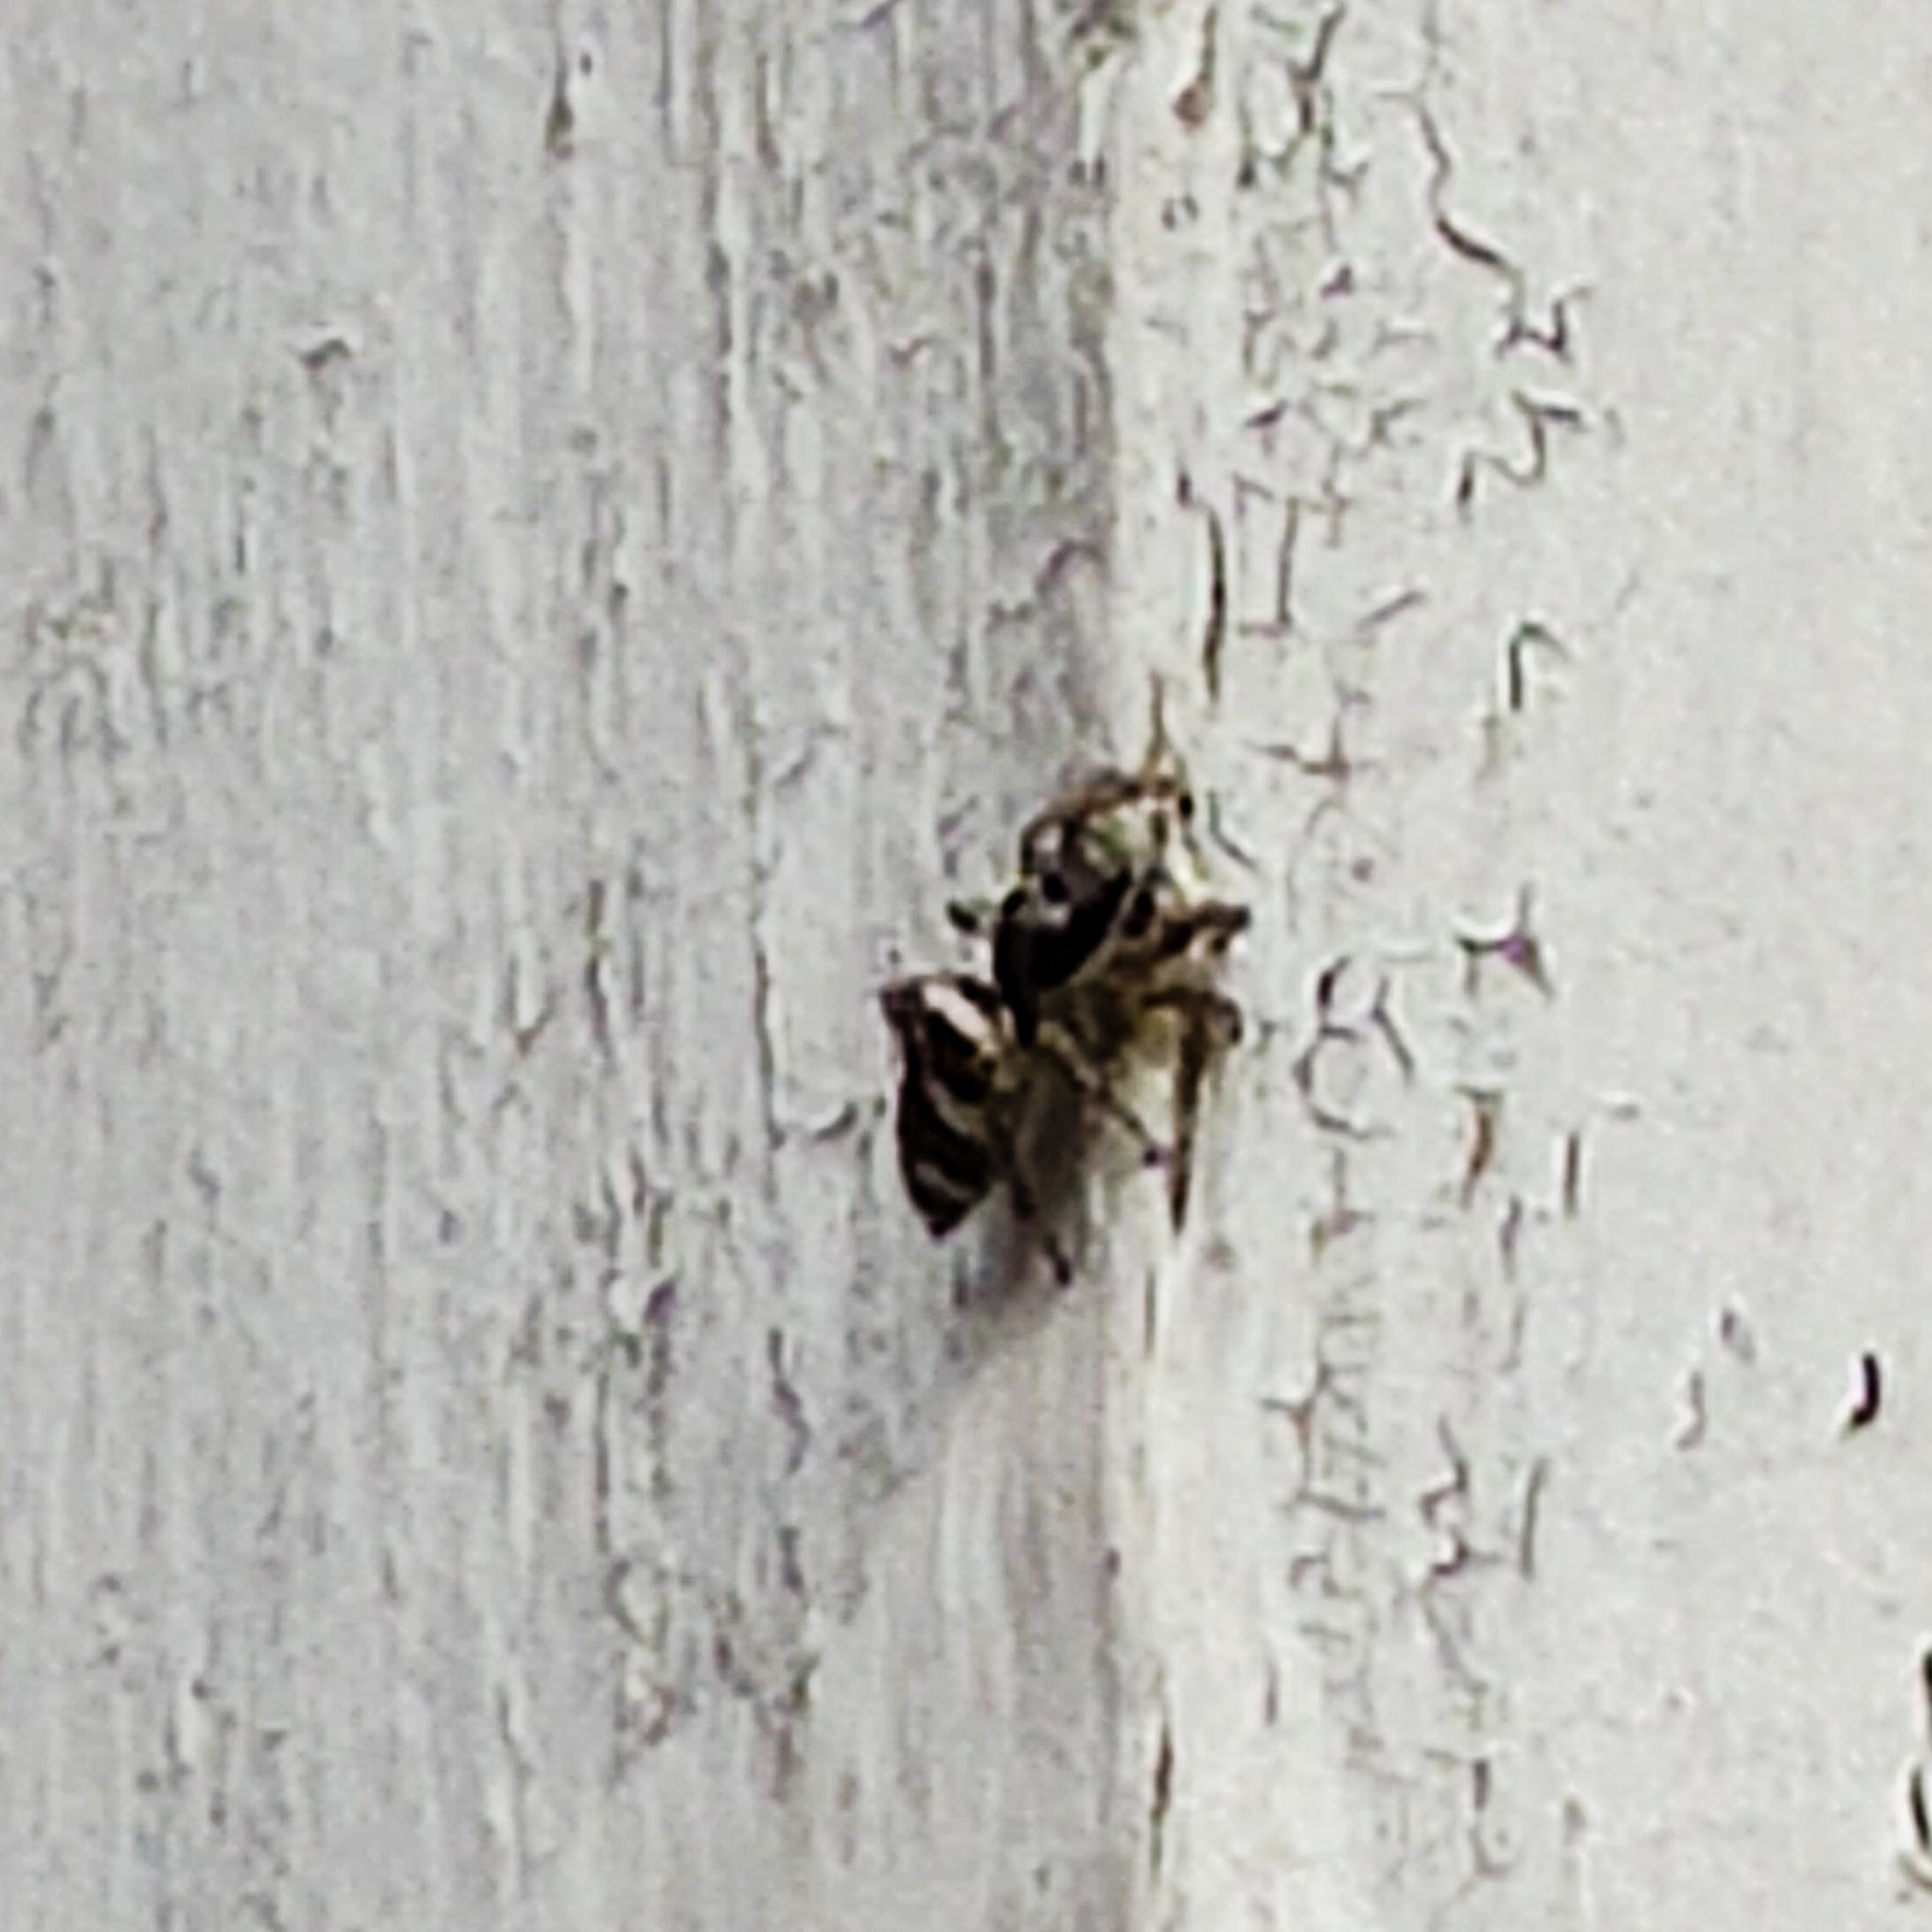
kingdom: Animalia
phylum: Arthropoda
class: Arachnida
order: Araneae
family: Salticidae
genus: Salticus
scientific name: Salticus scenicus
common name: Zebra jumper
